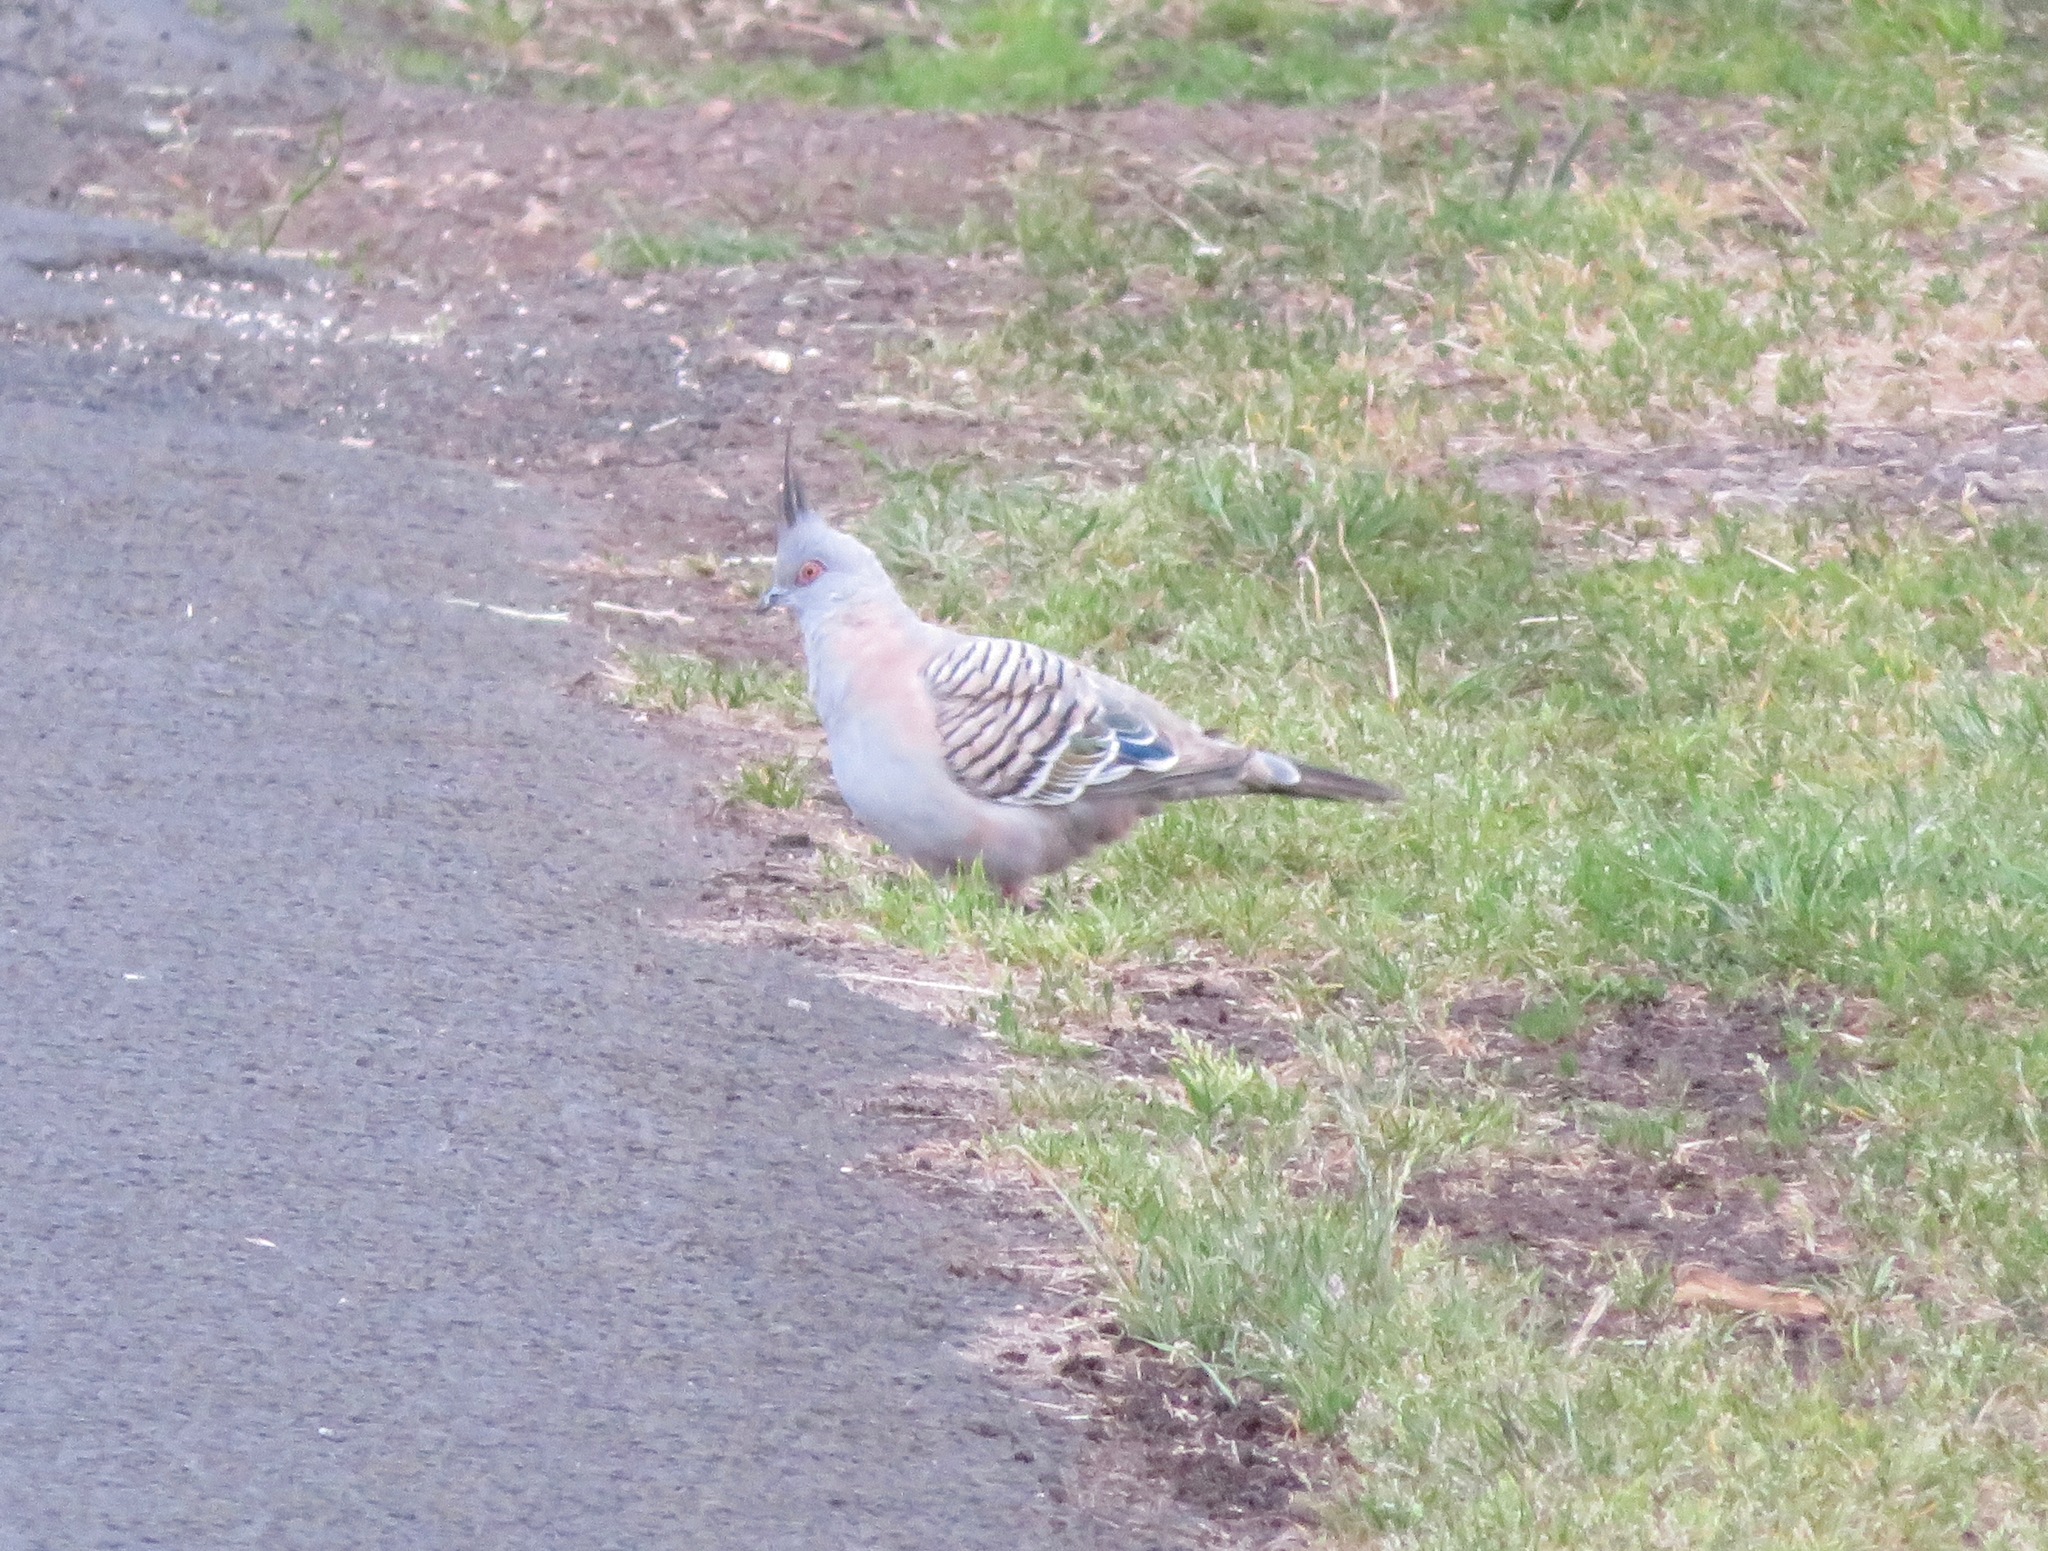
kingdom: Animalia
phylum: Chordata
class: Aves
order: Columbiformes
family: Columbidae
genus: Ocyphaps
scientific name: Ocyphaps lophotes
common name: Crested pigeon
